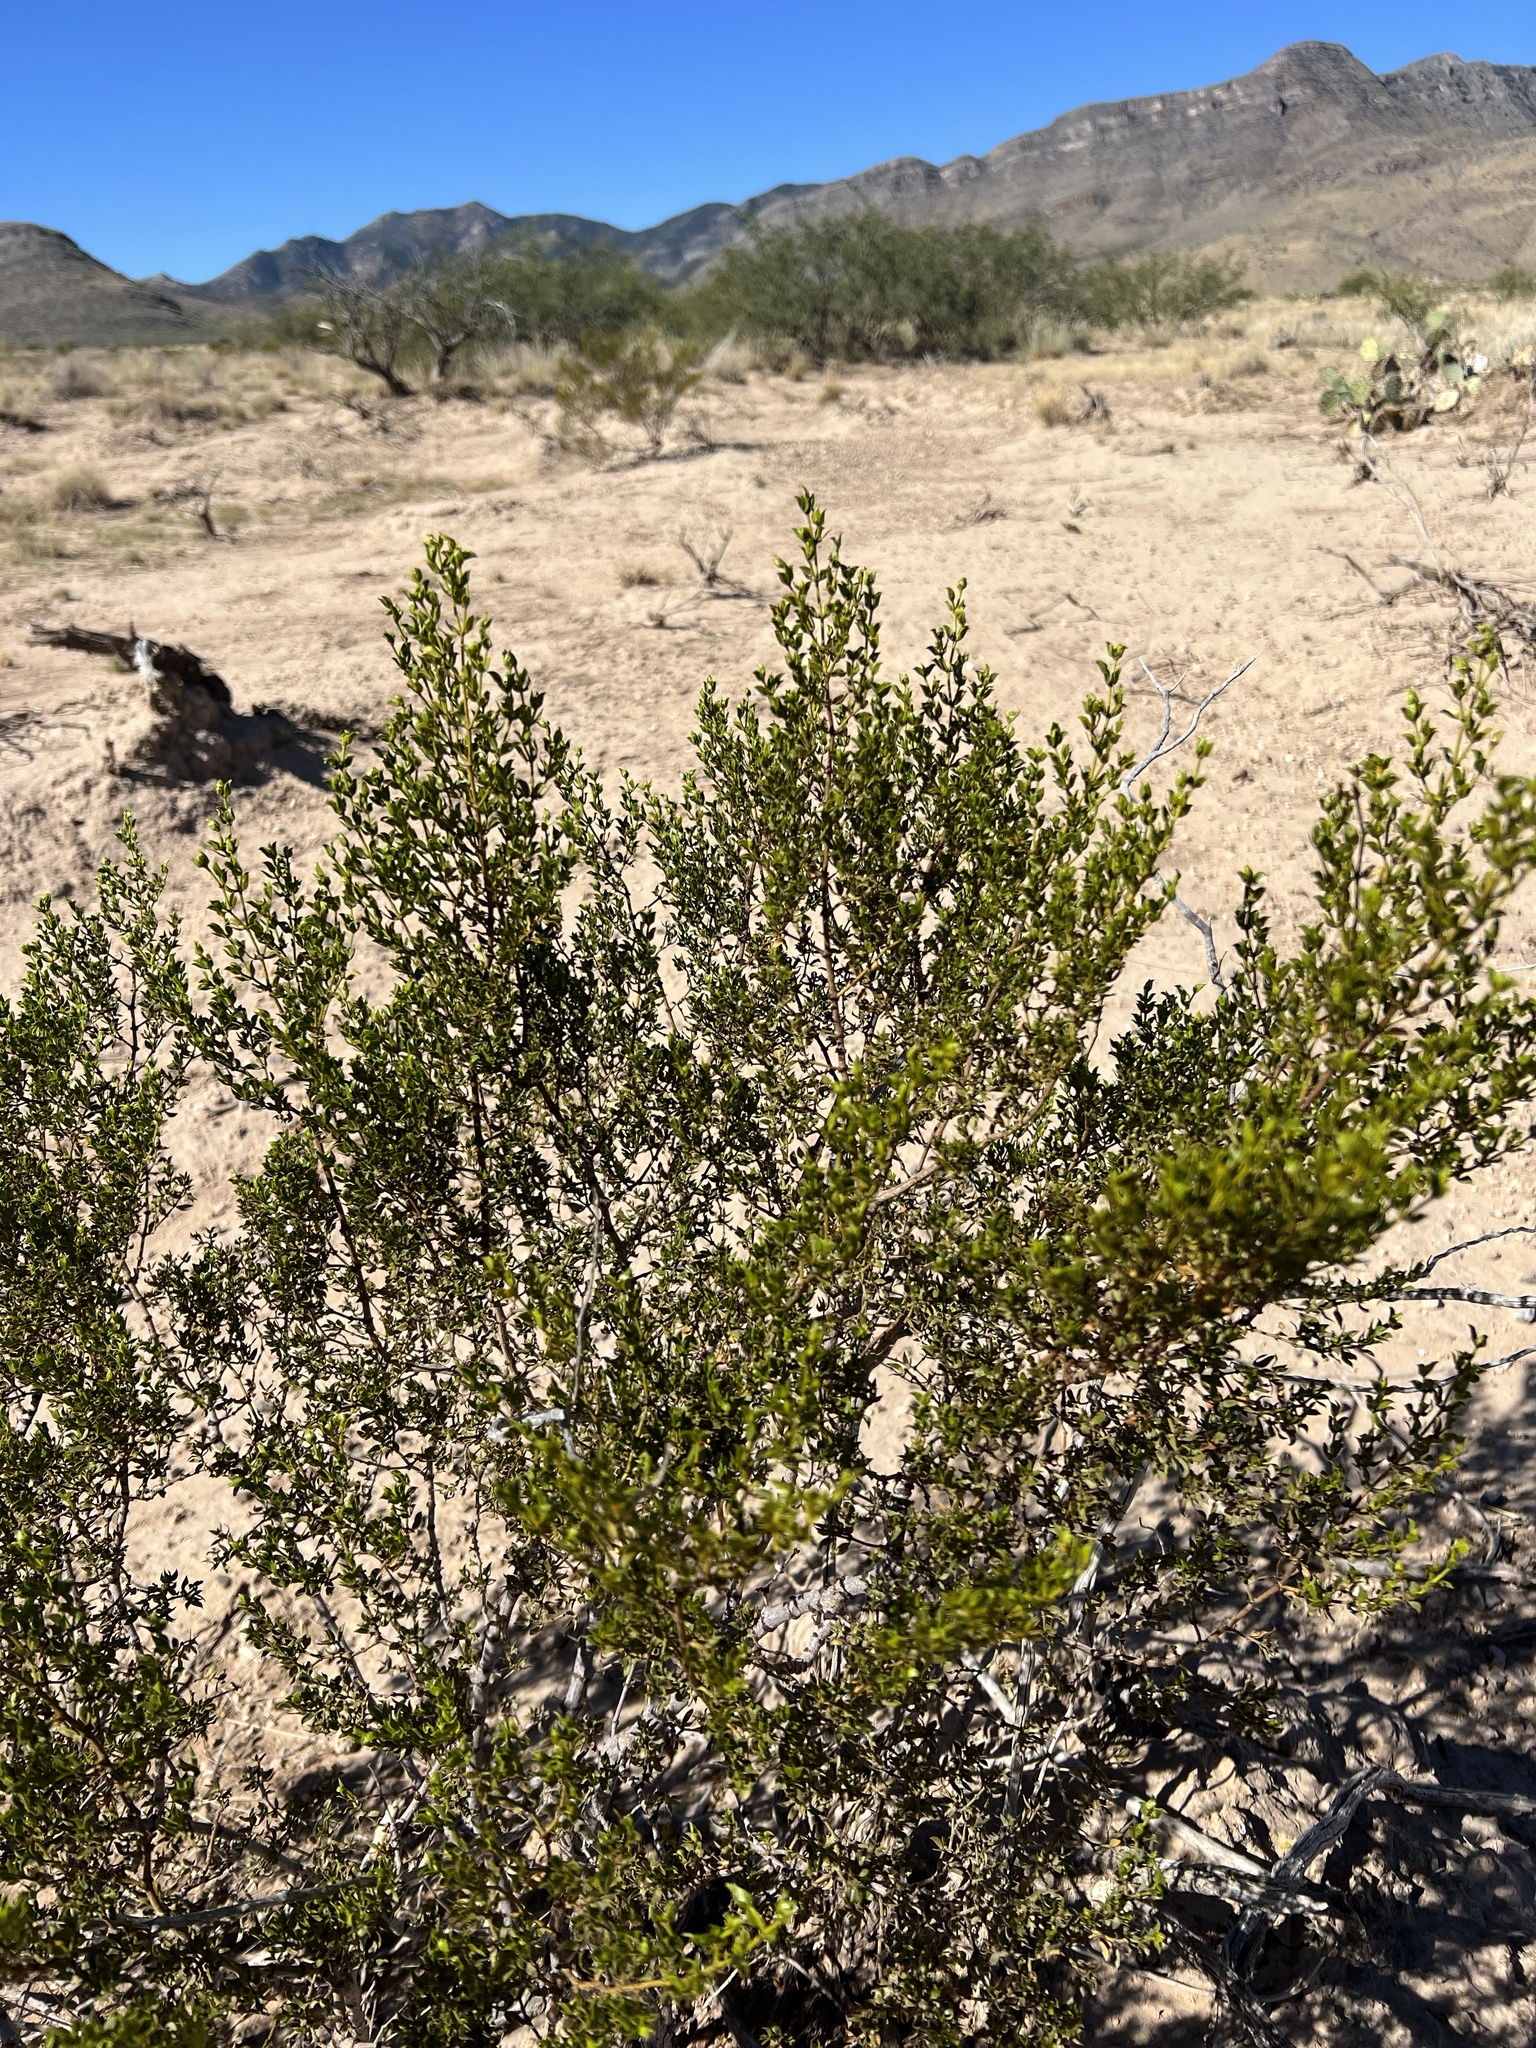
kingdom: Plantae
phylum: Tracheophyta
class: Magnoliopsida
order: Zygophyllales
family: Zygophyllaceae
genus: Larrea
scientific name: Larrea tridentata
